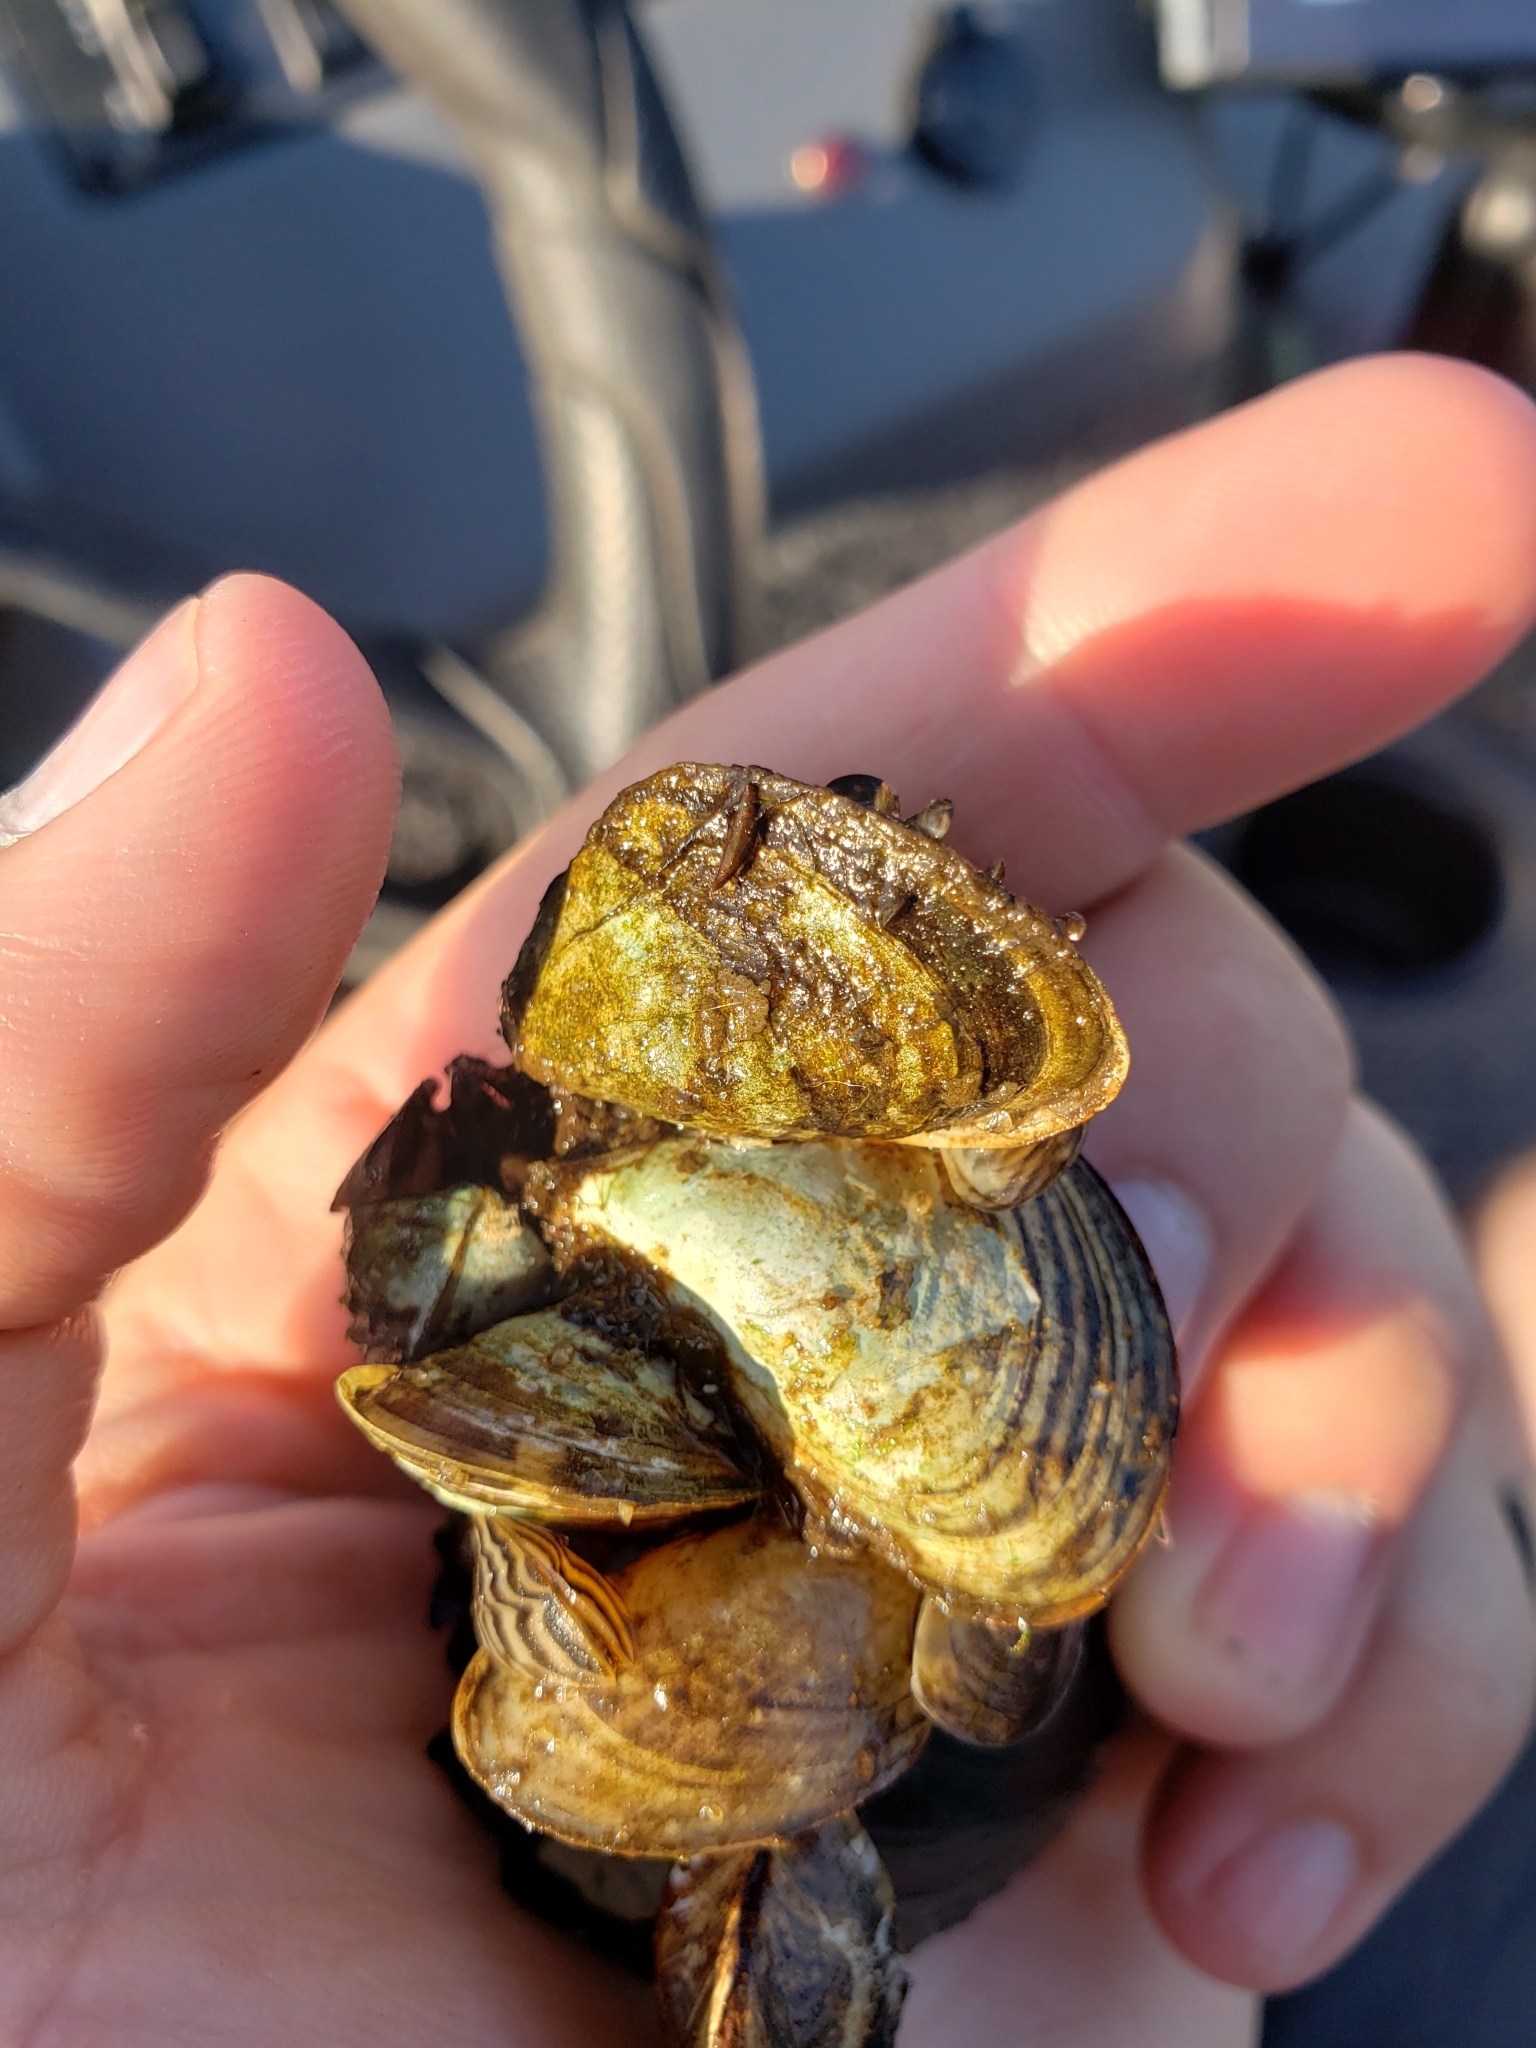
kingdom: Animalia
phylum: Mollusca
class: Bivalvia
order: Myida
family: Dreissenidae
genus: Dreissena
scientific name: Dreissena bugensis
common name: Quagga mussel
